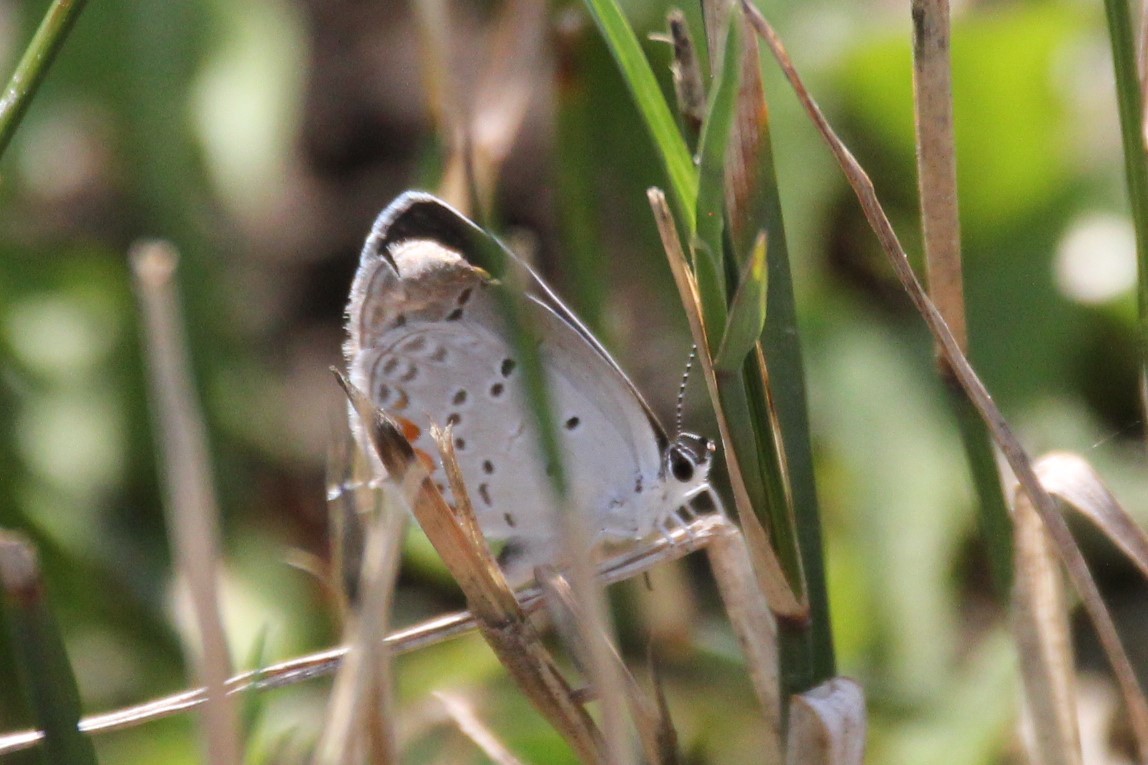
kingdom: Animalia
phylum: Arthropoda
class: Insecta
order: Lepidoptera
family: Lycaenidae
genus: Elkalyce
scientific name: Elkalyce comyntas
